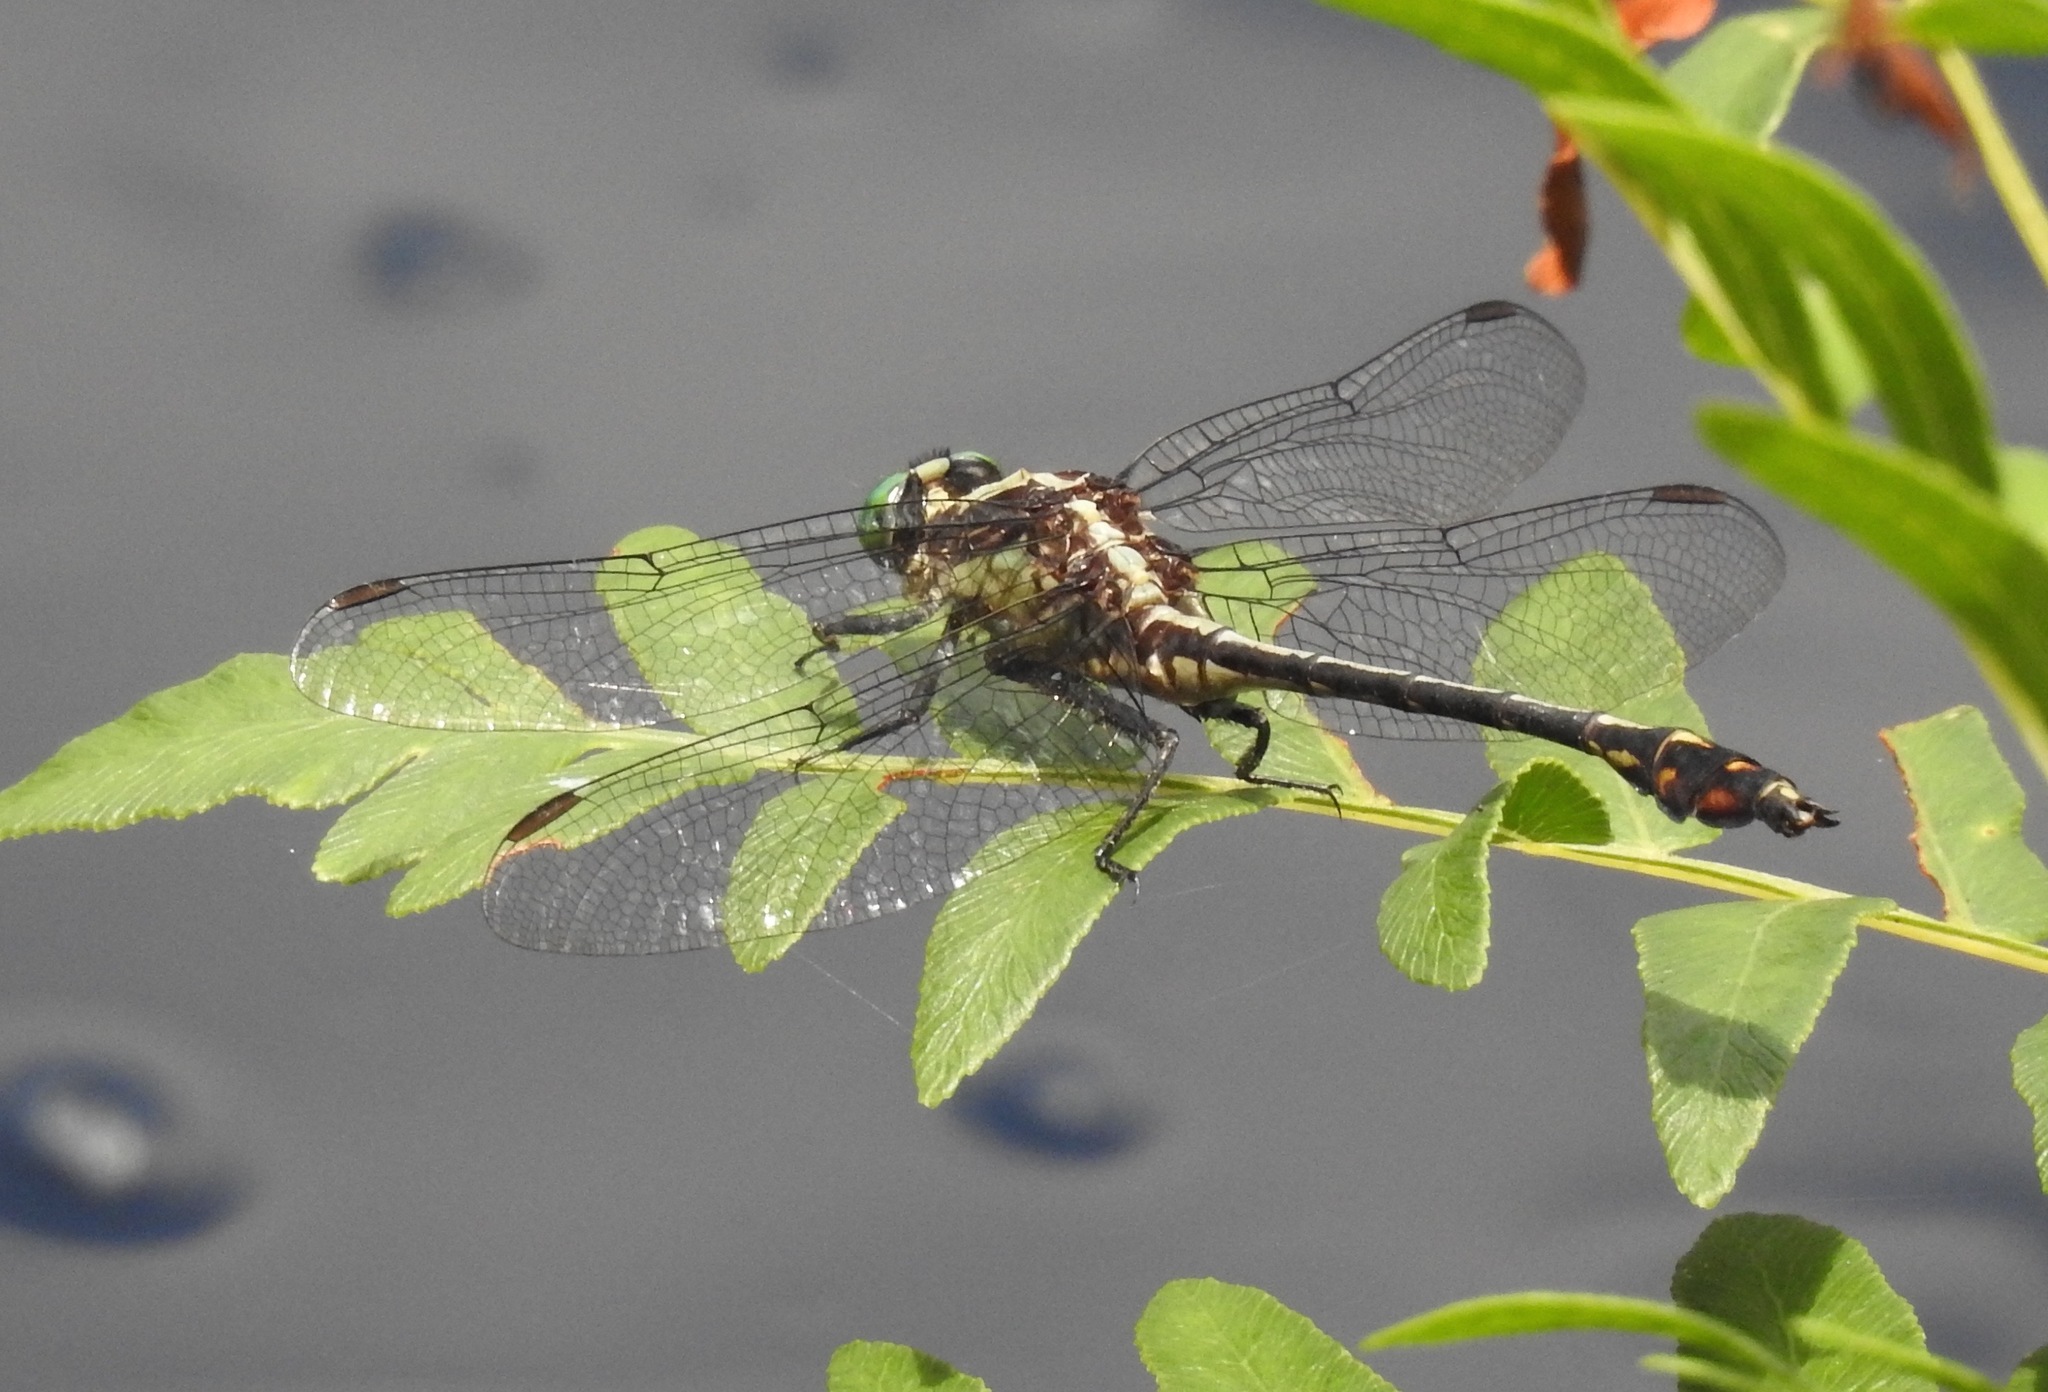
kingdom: Animalia
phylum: Arthropoda
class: Insecta
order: Odonata
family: Gomphidae
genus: Dromogomphus
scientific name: Dromogomphus spinosus
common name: Black-shouldered spinyleg
